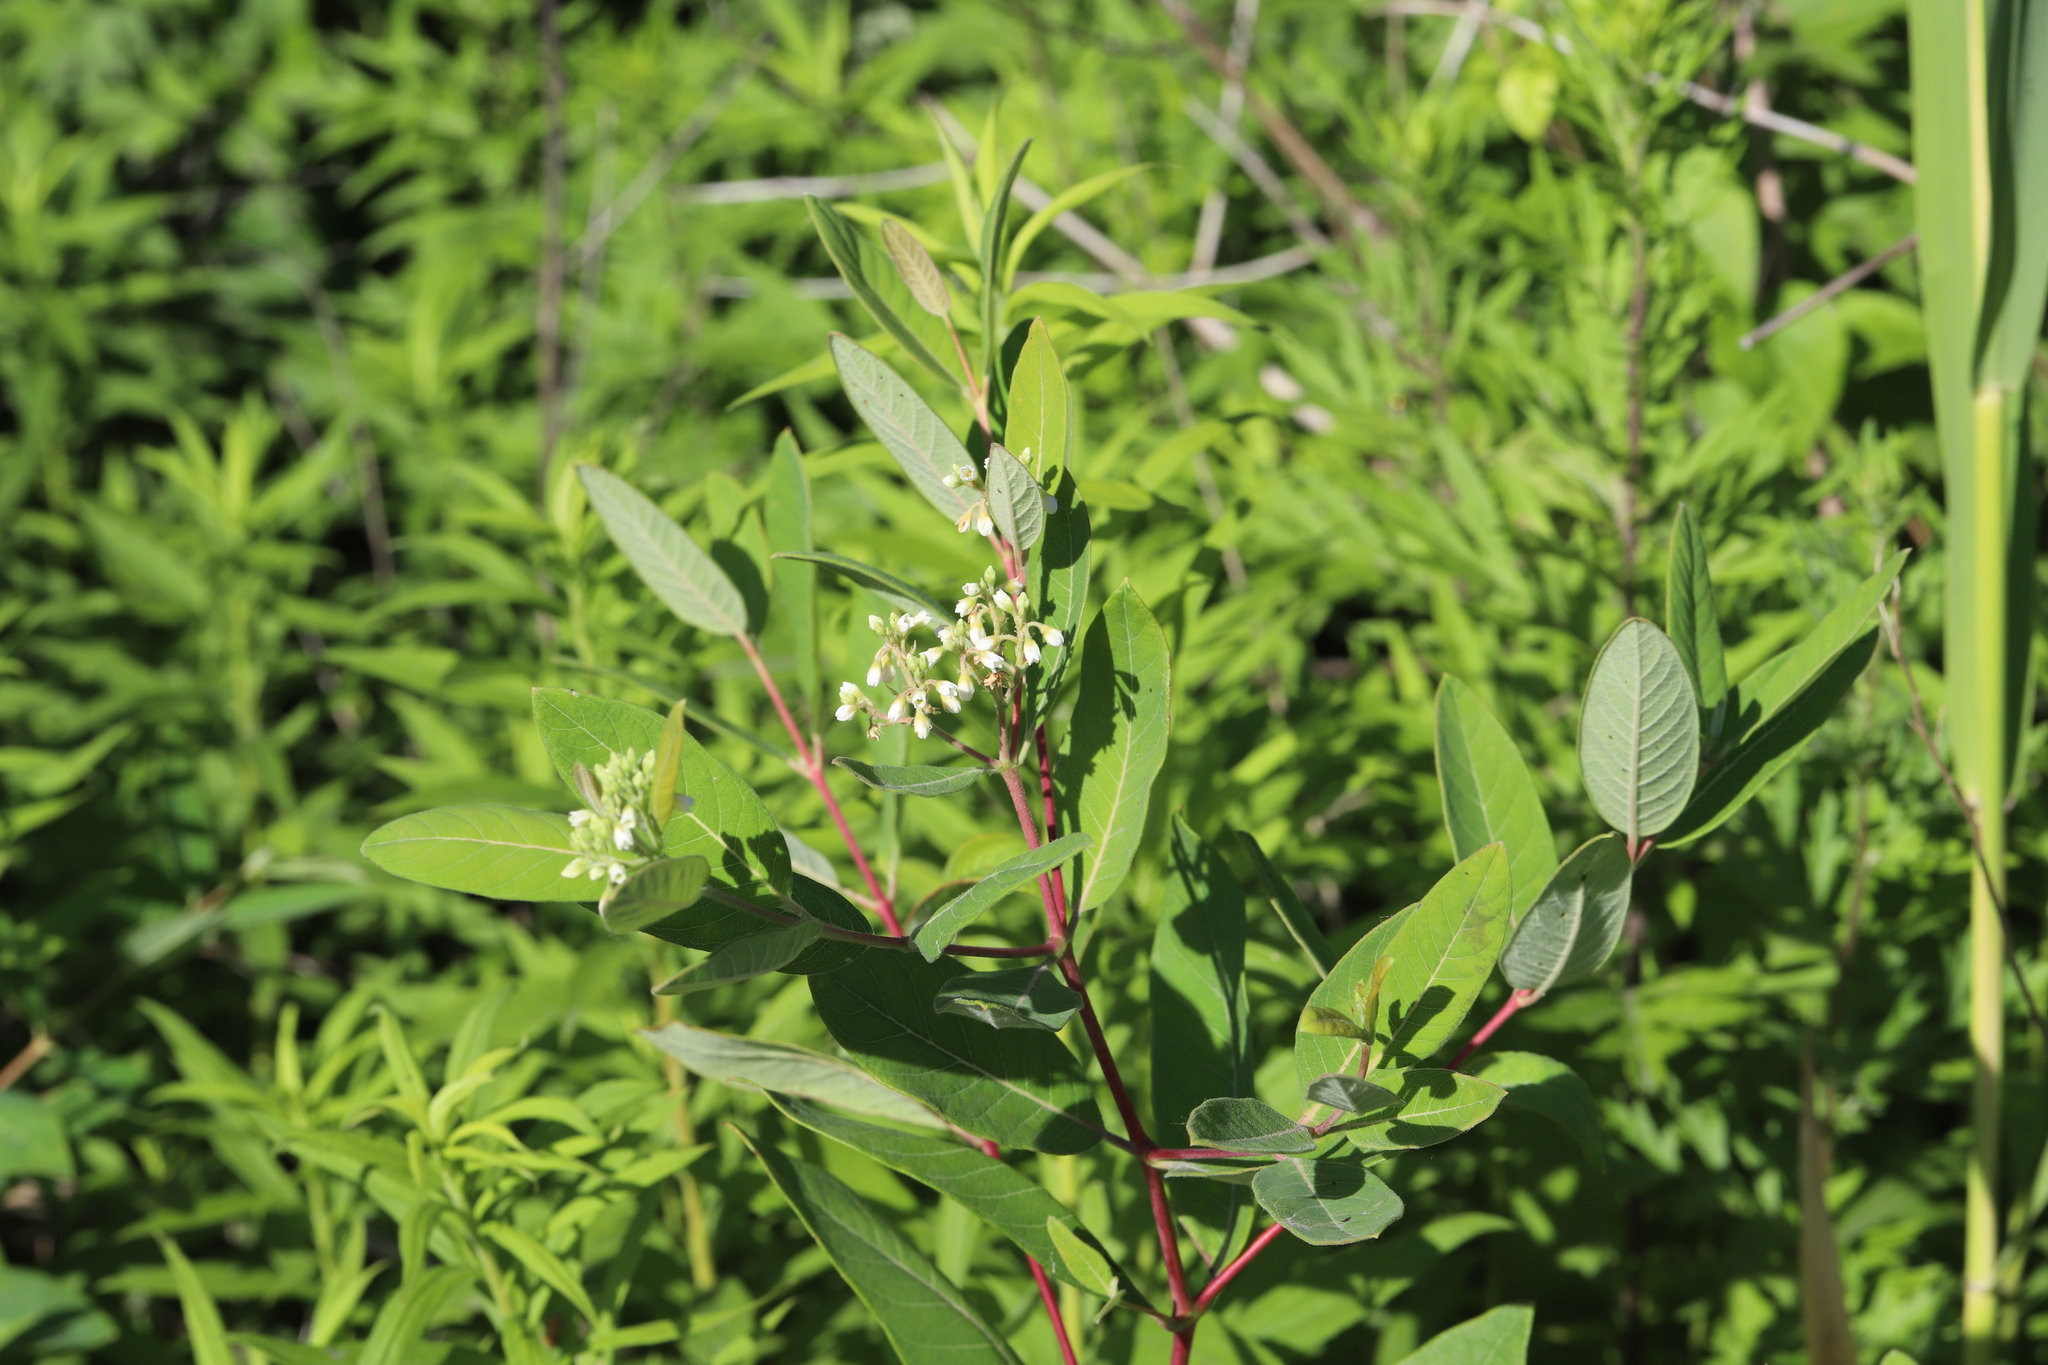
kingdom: Plantae
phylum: Tracheophyta
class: Magnoliopsida
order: Gentianales
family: Apocynaceae
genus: Apocynum
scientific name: Apocynum cannabinum
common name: Hemp dogbane
